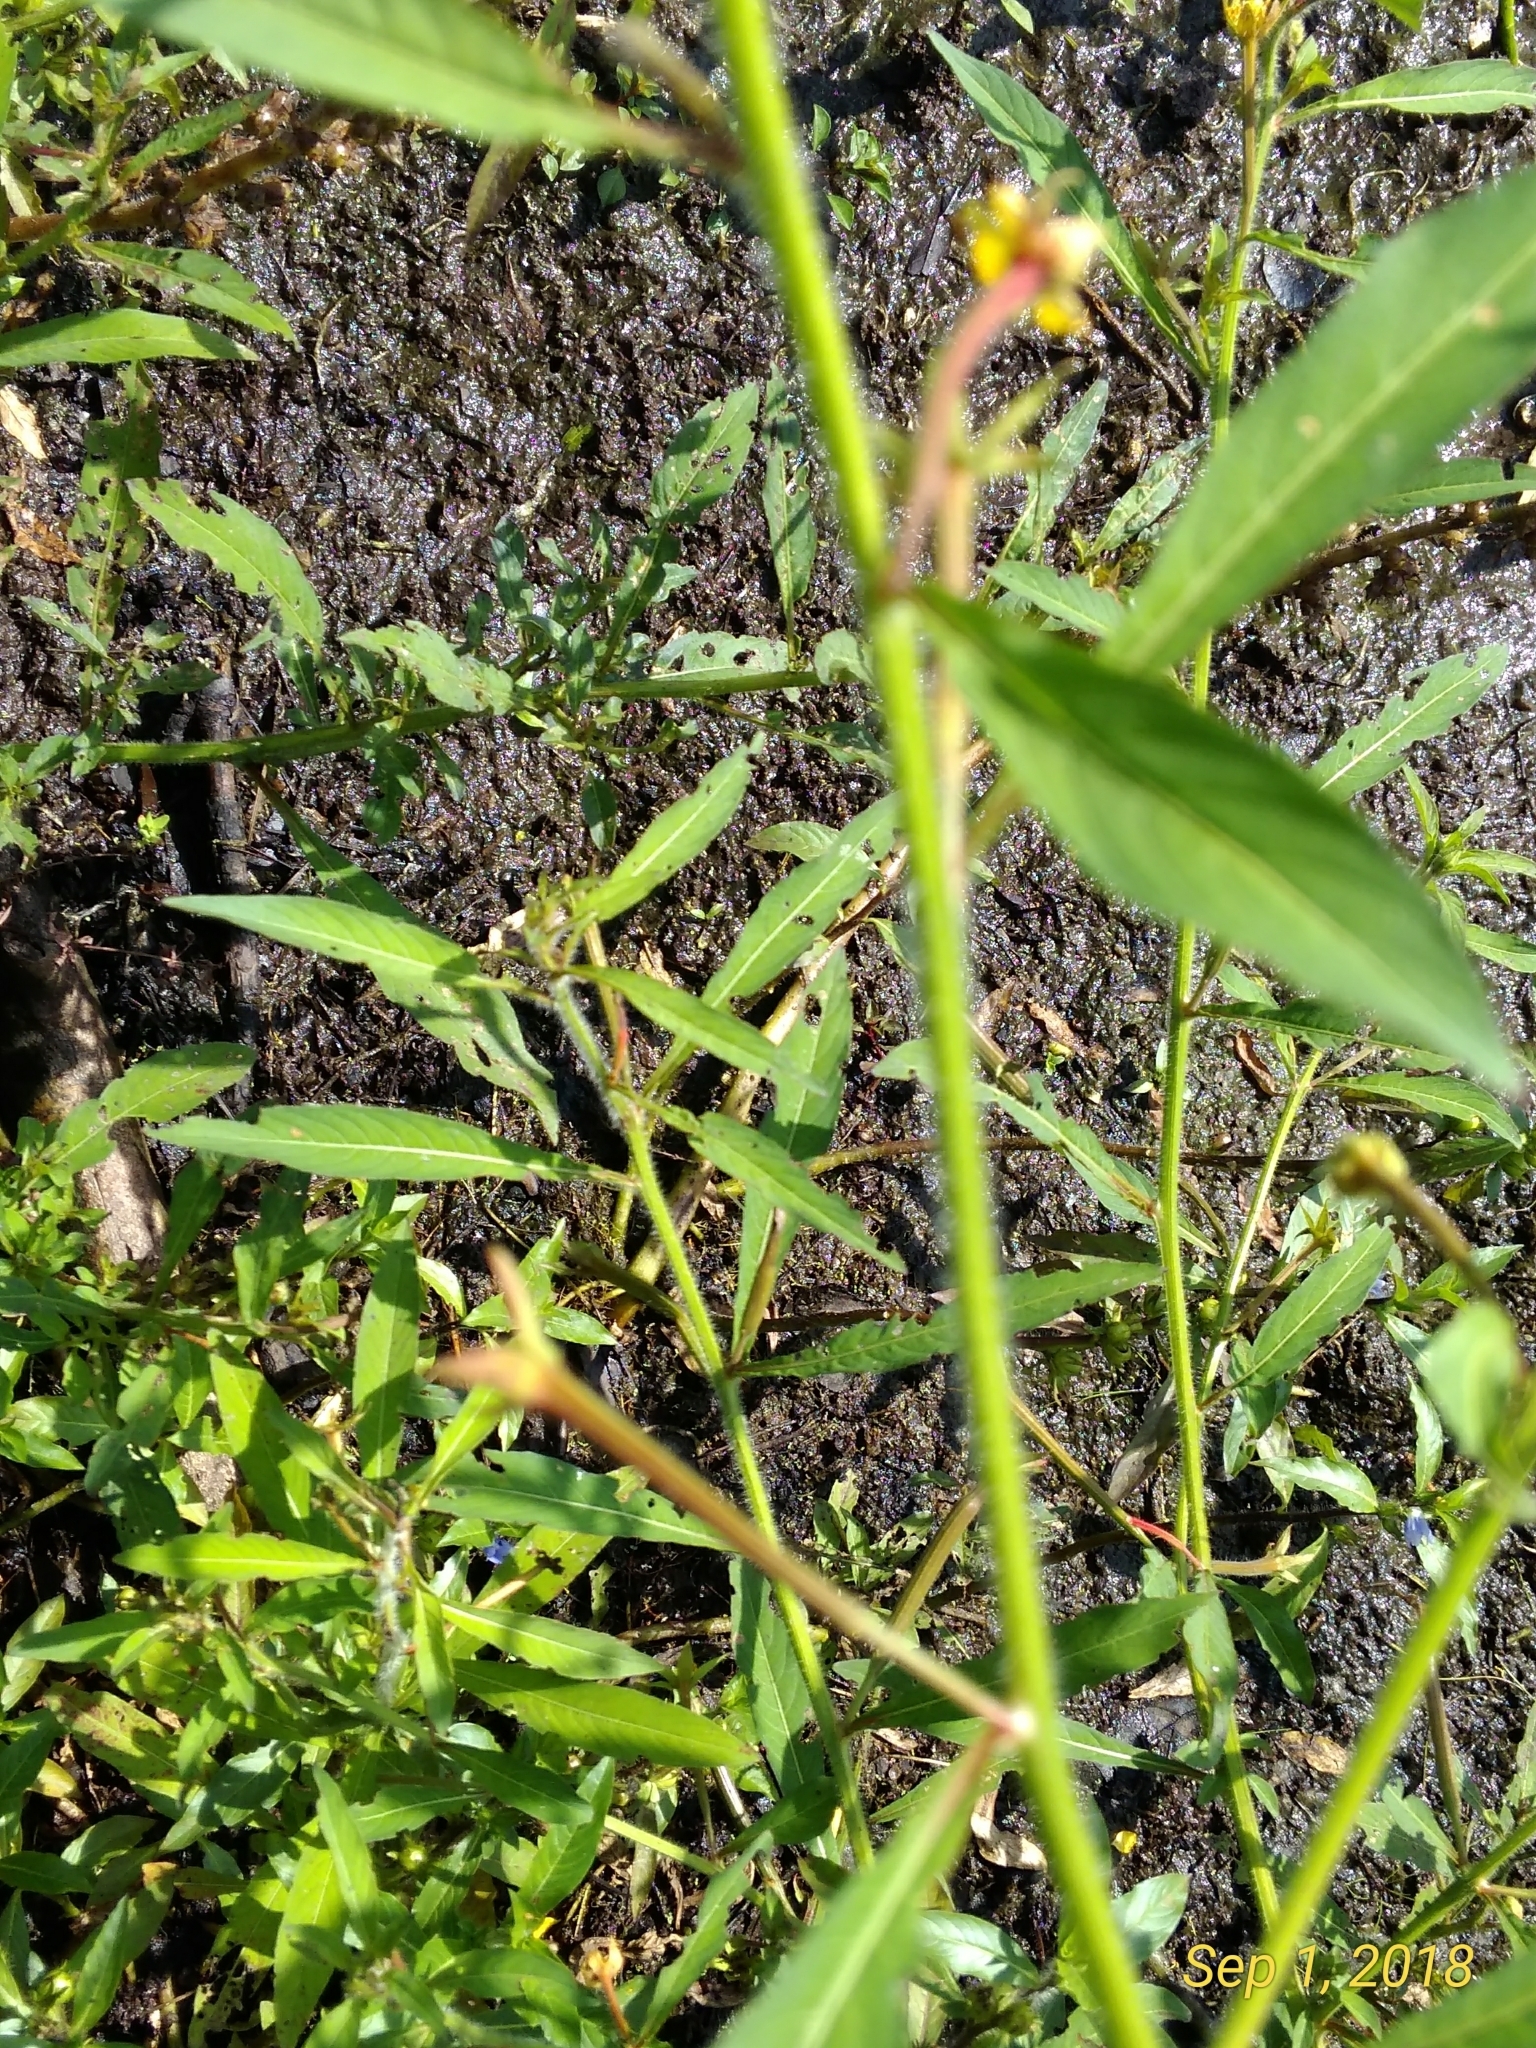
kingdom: Plantae
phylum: Tracheophyta
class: Magnoliopsida
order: Myrtales
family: Onagraceae
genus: Ludwigia
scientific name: Ludwigia leptocarpa
